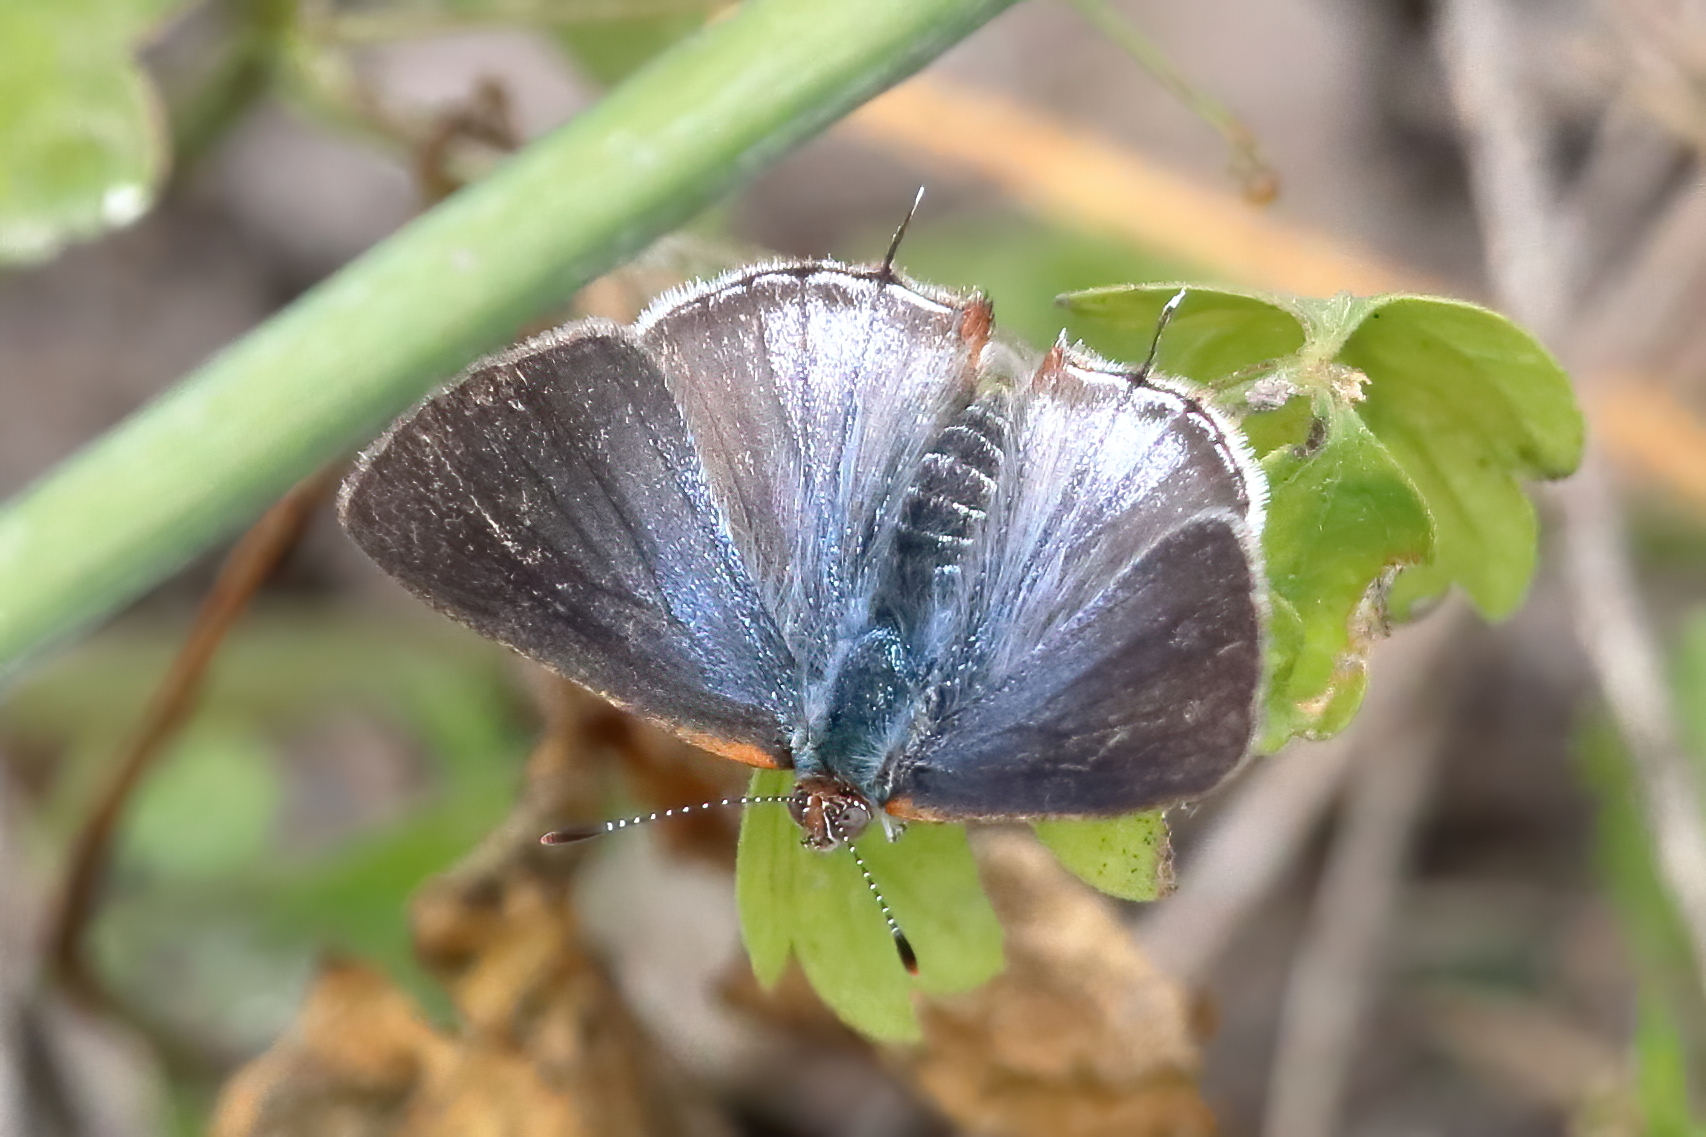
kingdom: Animalia
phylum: Arthropoda
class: Insecta
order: Lepidoptera
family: Lycaenidae
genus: Chlorostrymon
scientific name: Chlorostrymon simaethis
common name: Silver-banded hairstreak
